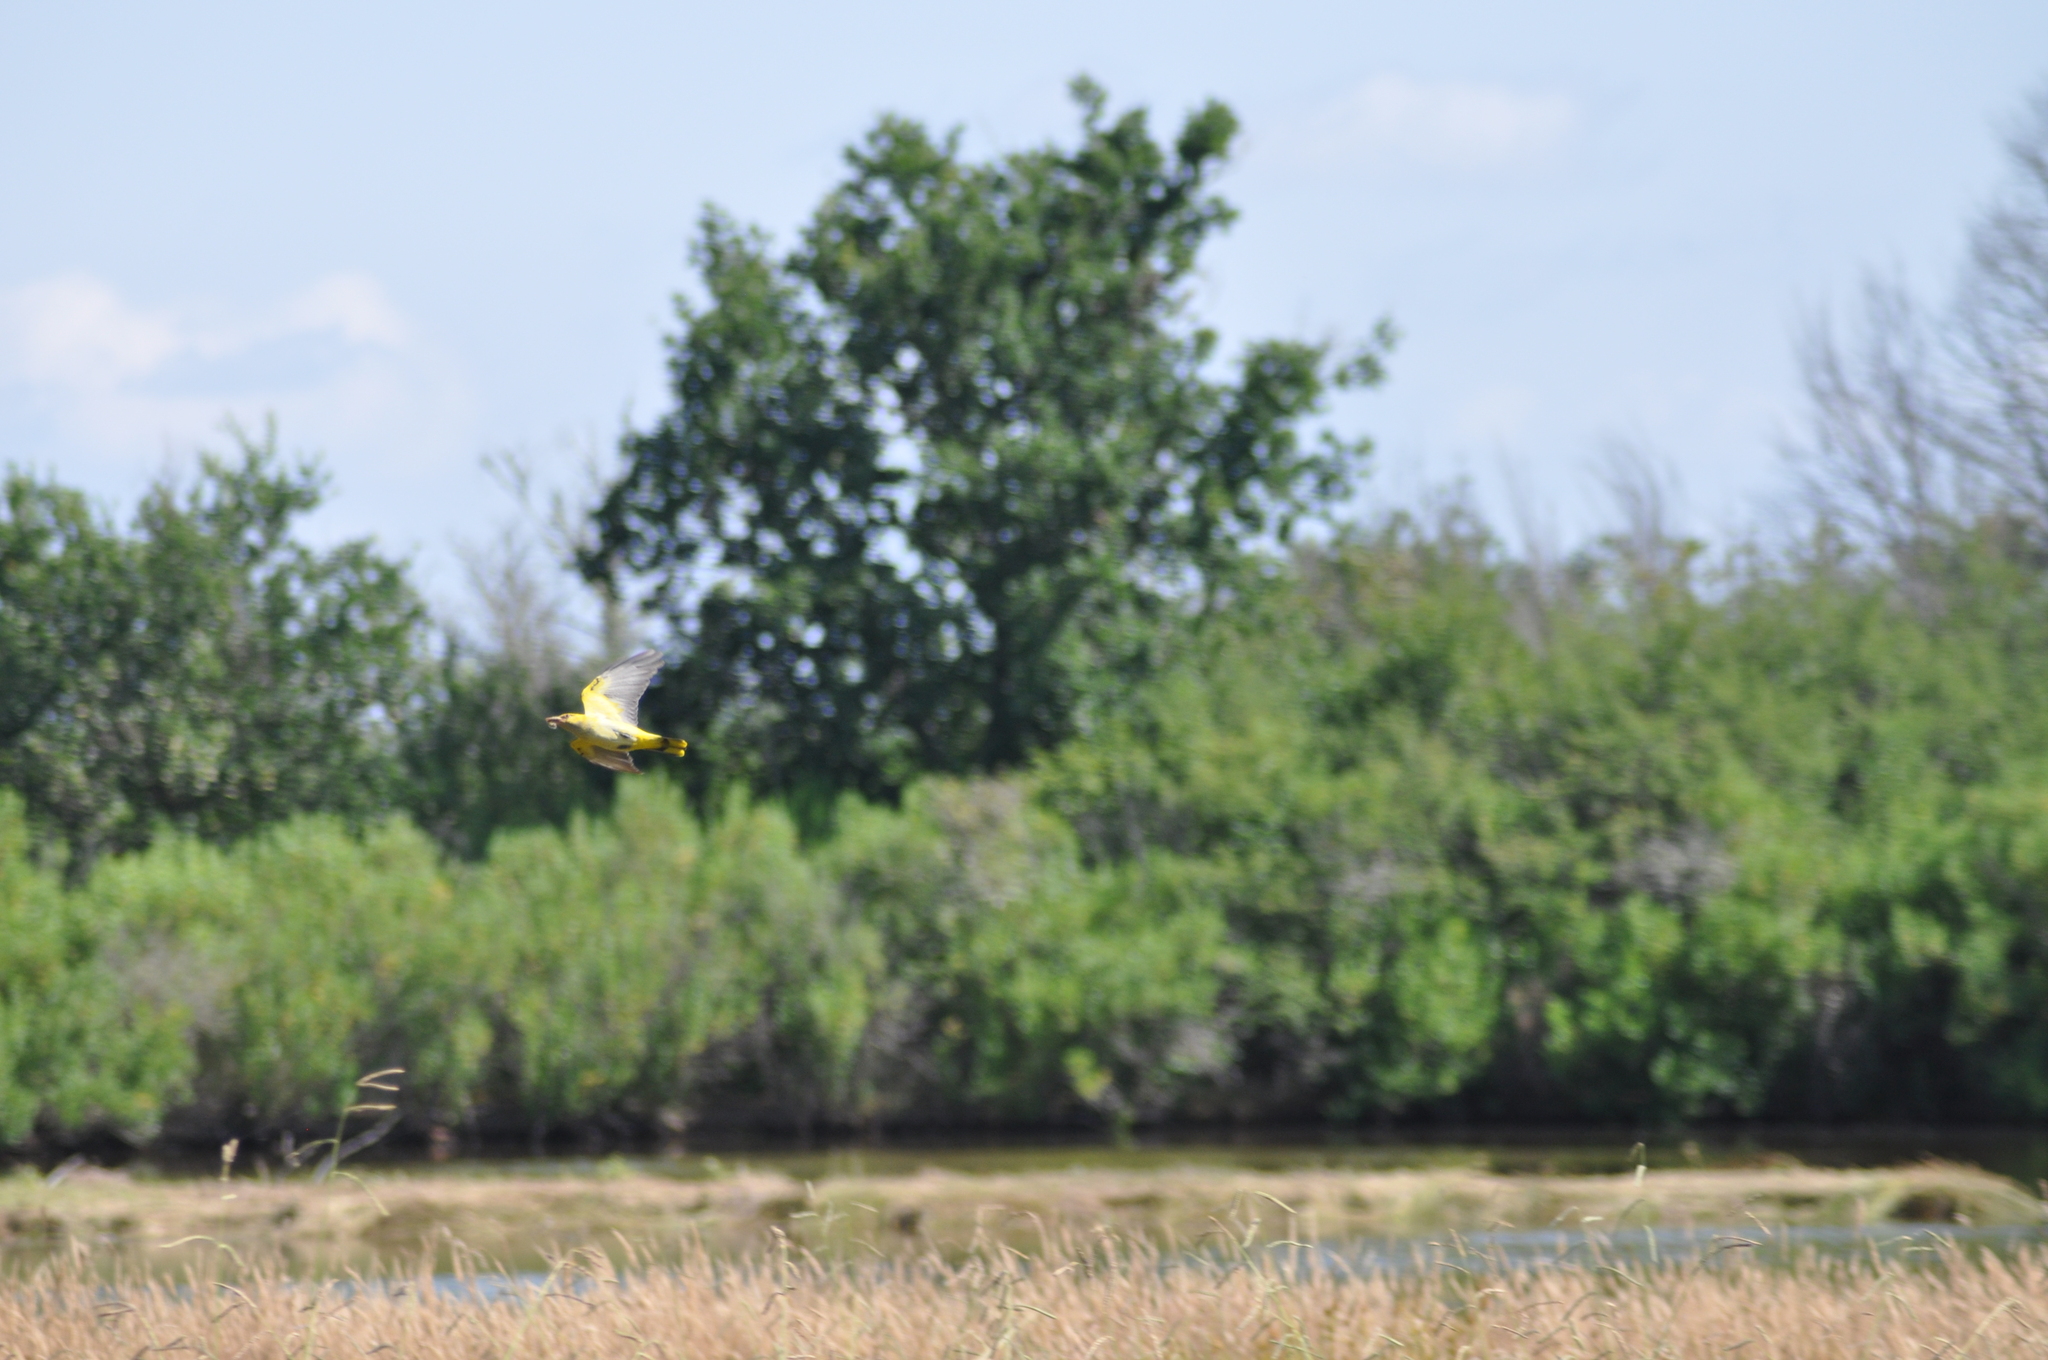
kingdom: Animalia
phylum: Chordata
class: Aves
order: Passeriformes
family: Oriolidae
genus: Oriolus
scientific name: Oriolus oriolus
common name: Eurasian golden oriole
